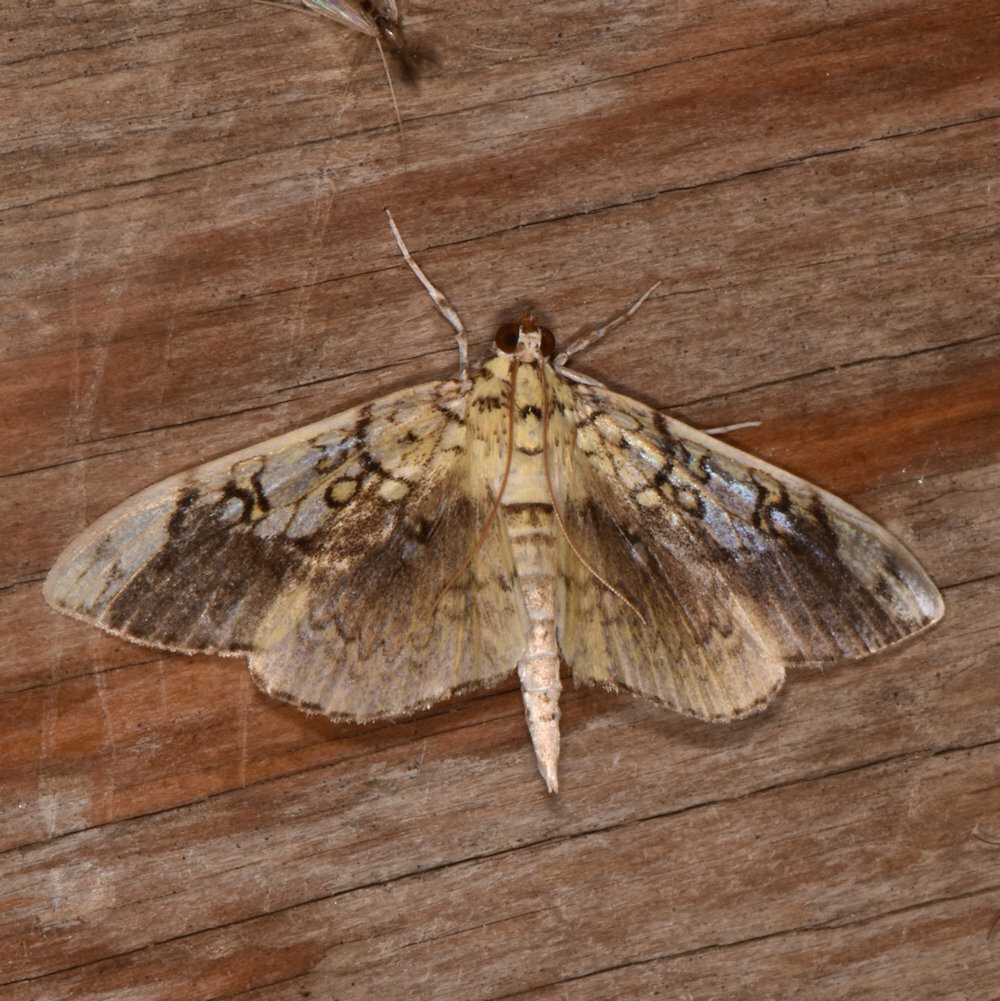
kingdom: Animalia
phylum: Arthropoda
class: Insecta
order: Lepidoptera
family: Crambidae
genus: Pantographa
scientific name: Pantographa limata
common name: Basswood leafroller moth
